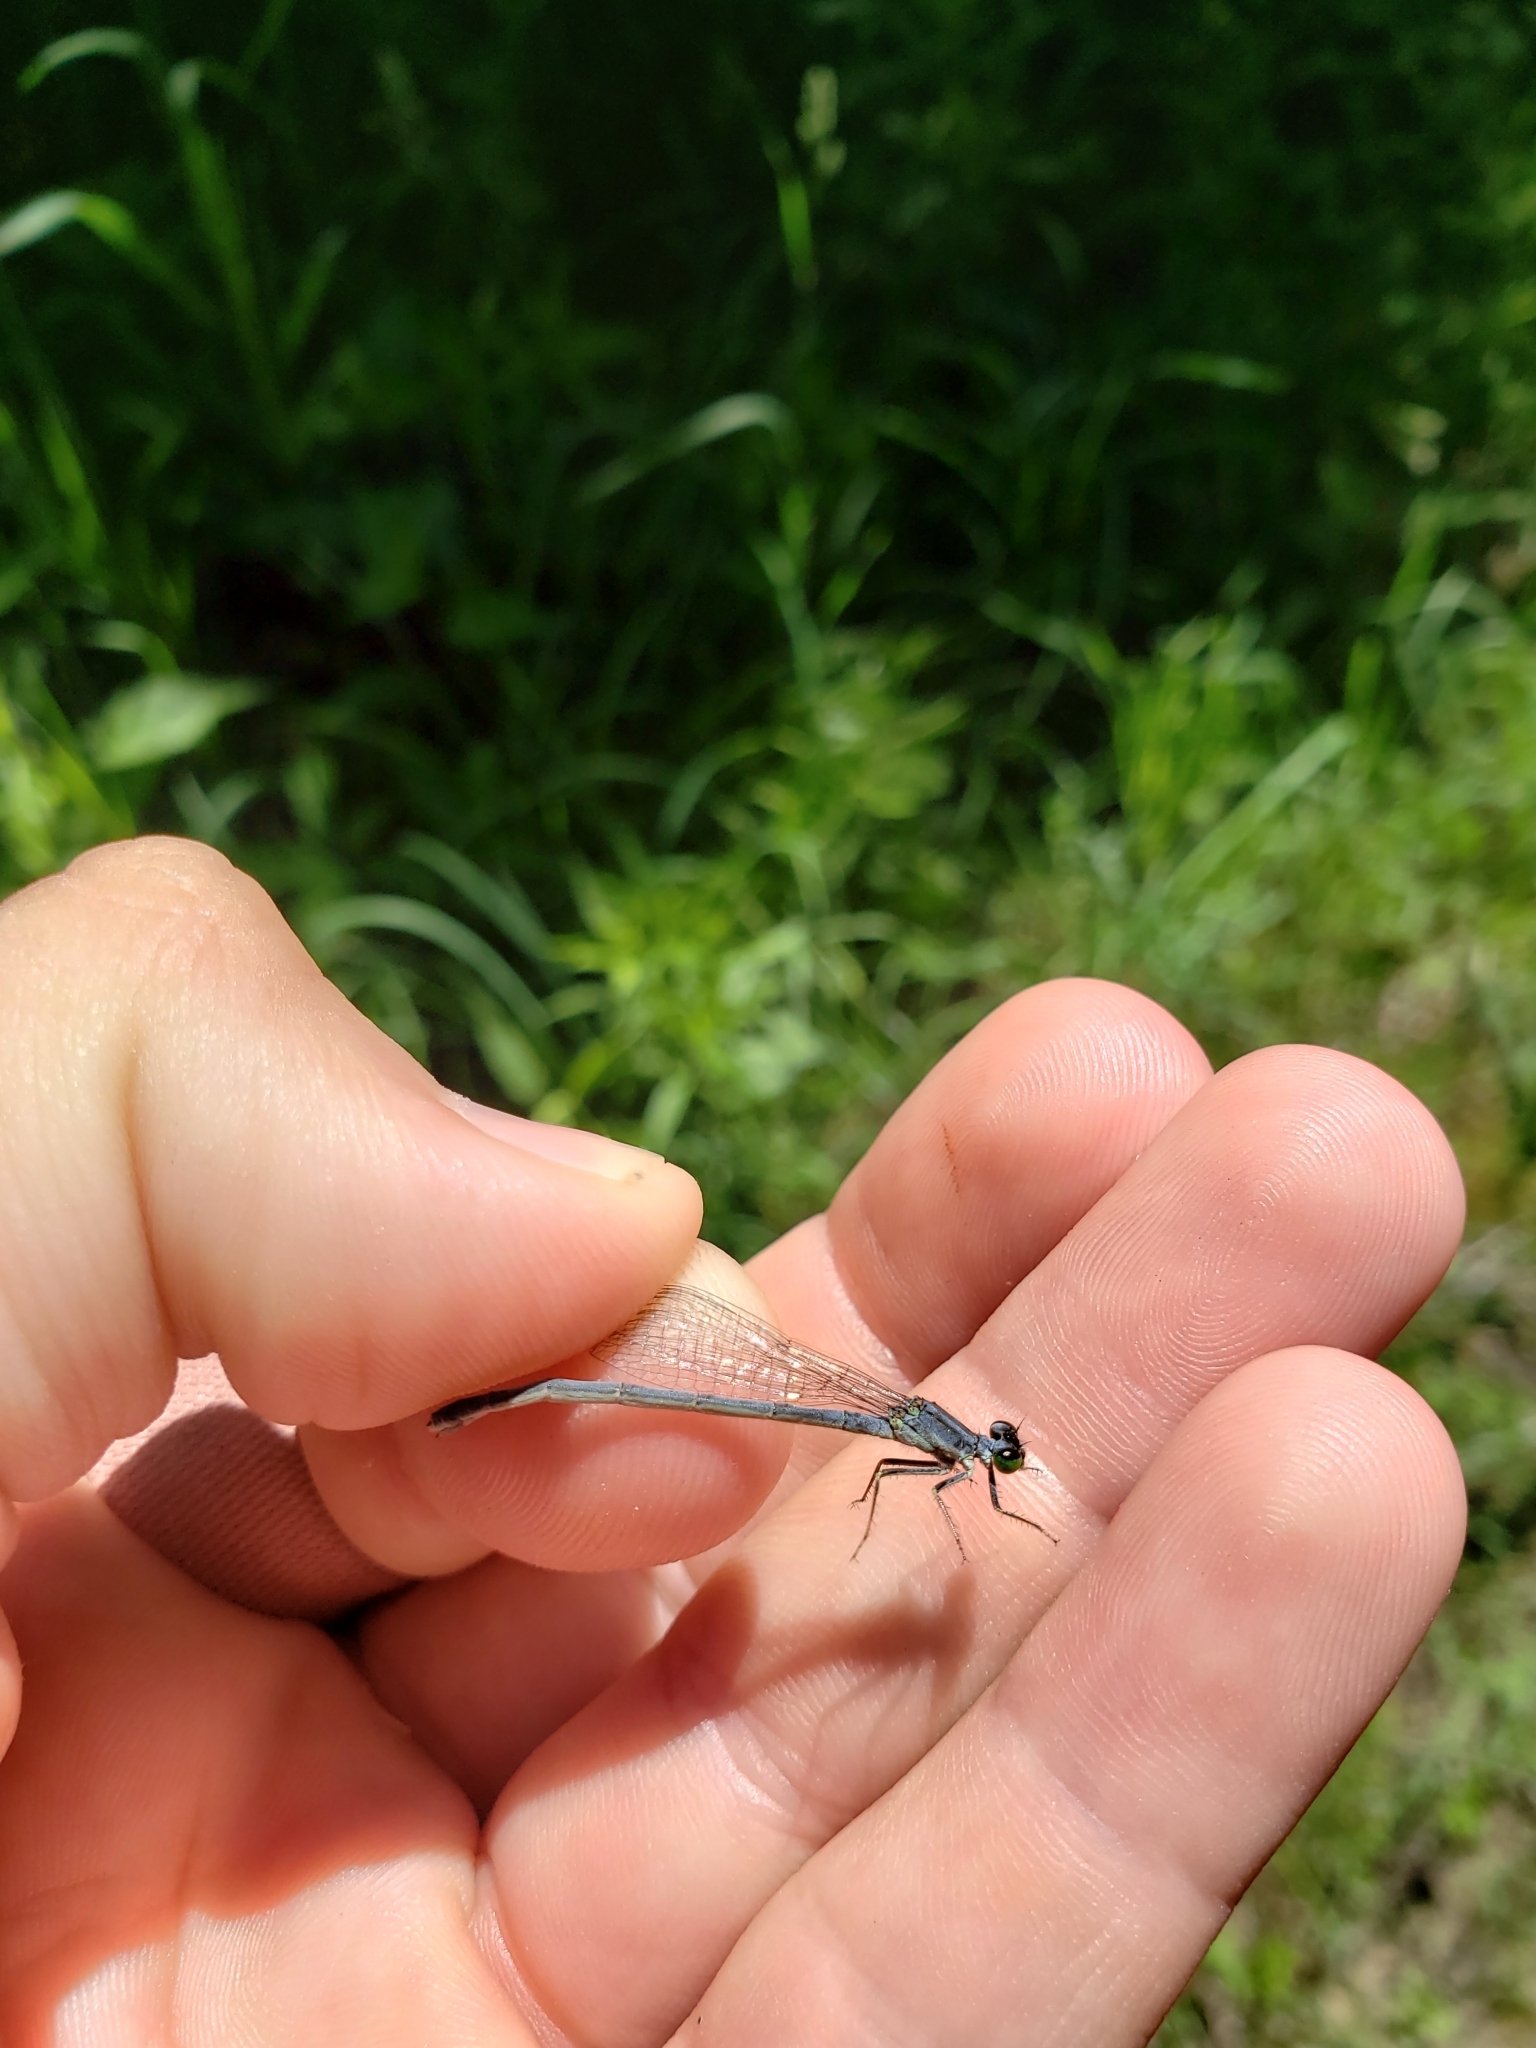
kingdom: Animalia
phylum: Arthropoda
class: Insecta
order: Odonata
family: Coenagrionidae
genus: Ischnura
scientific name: Ischnura verticalis
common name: Eastern forktail
